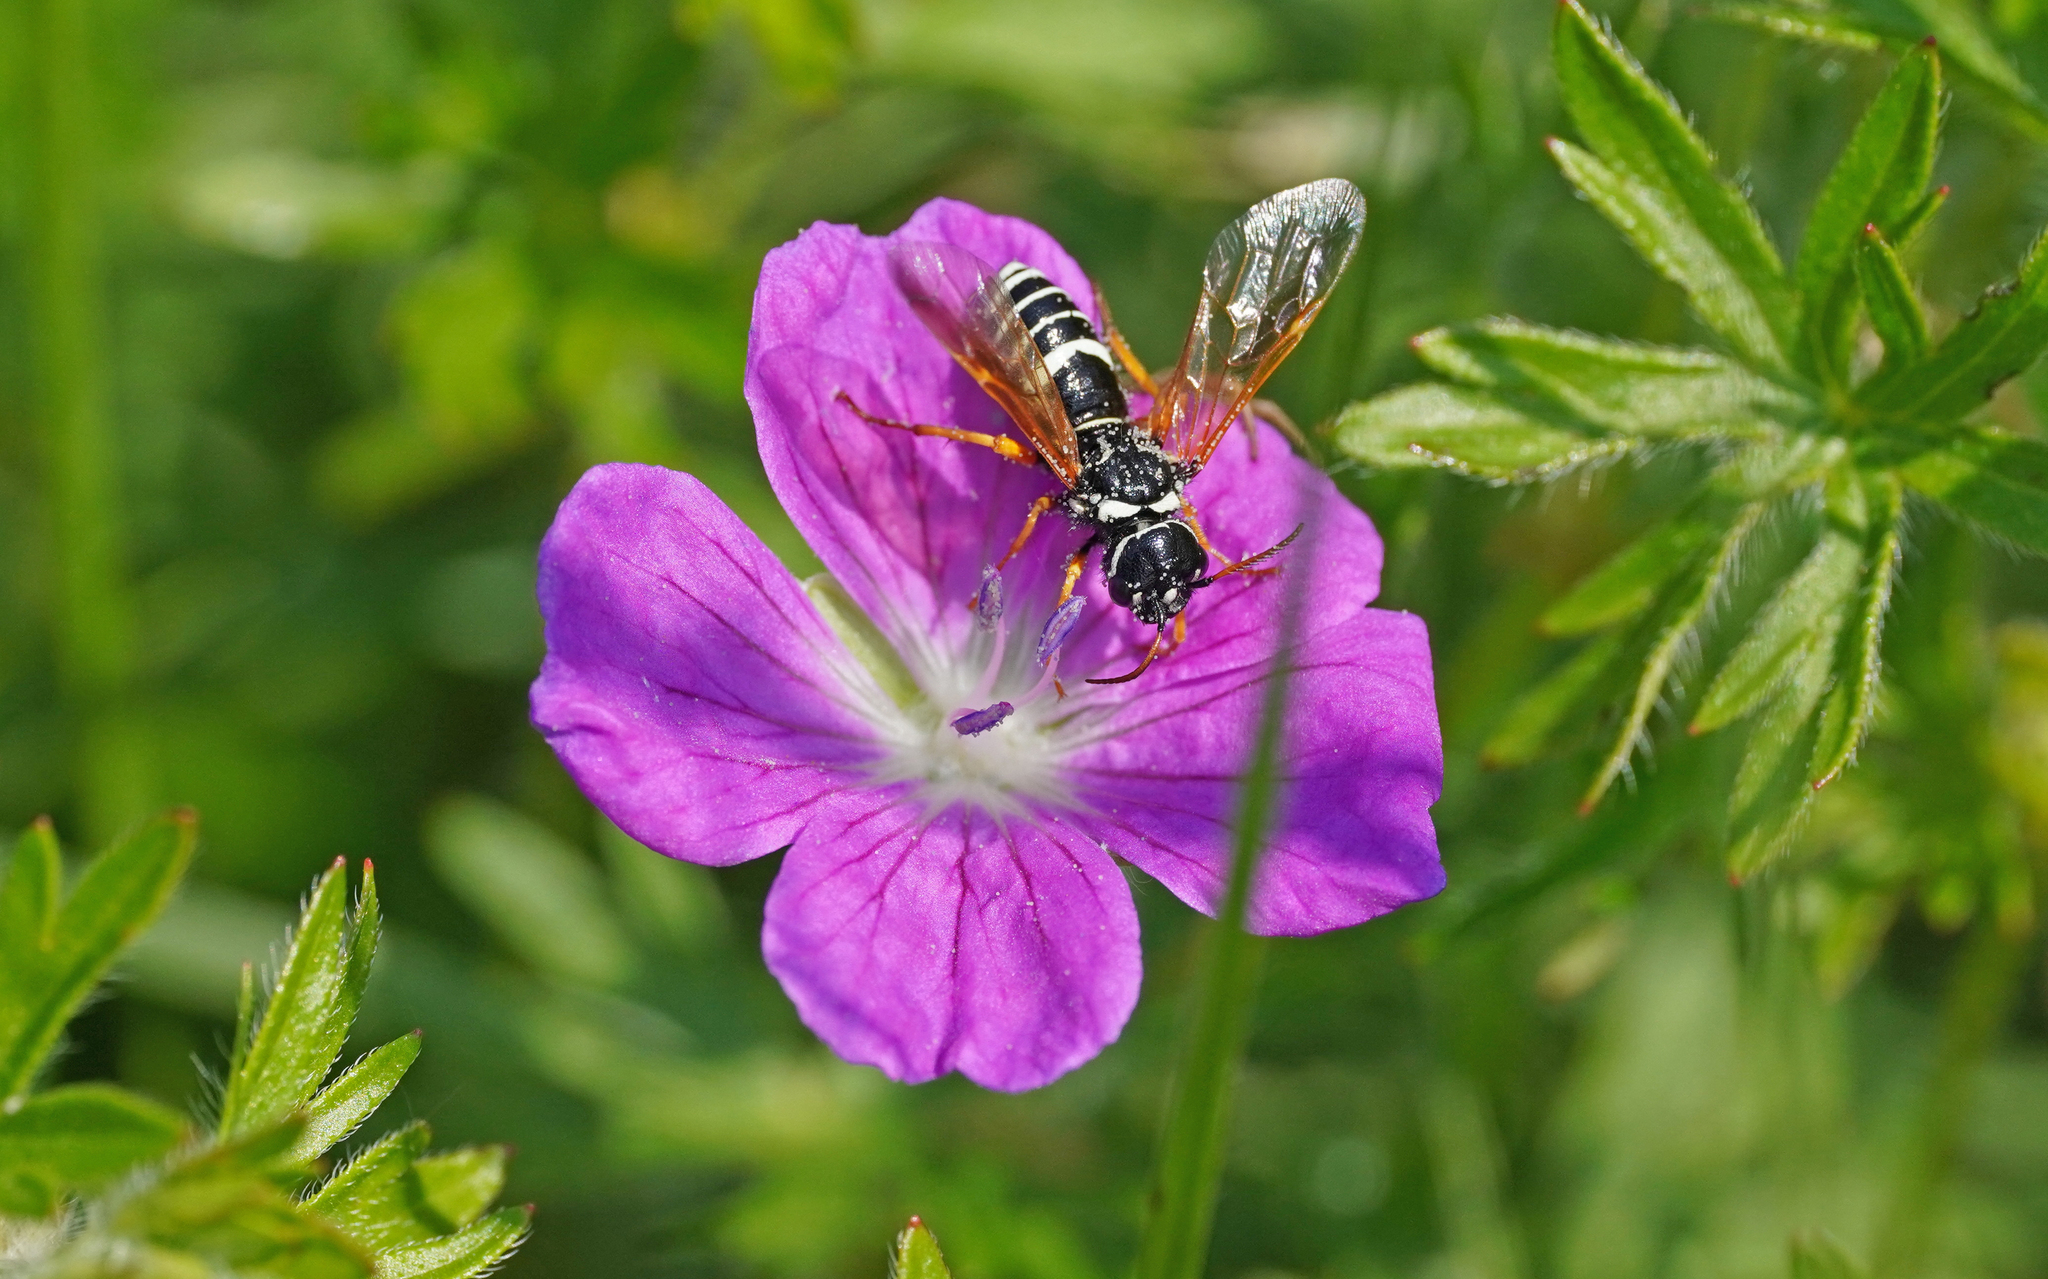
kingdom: Animalia
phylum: Arthropoda
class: Insecta
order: Hymenoptera
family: Megalodontesidae
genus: Megalodontes
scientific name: Megalodontes plagiocephalus
